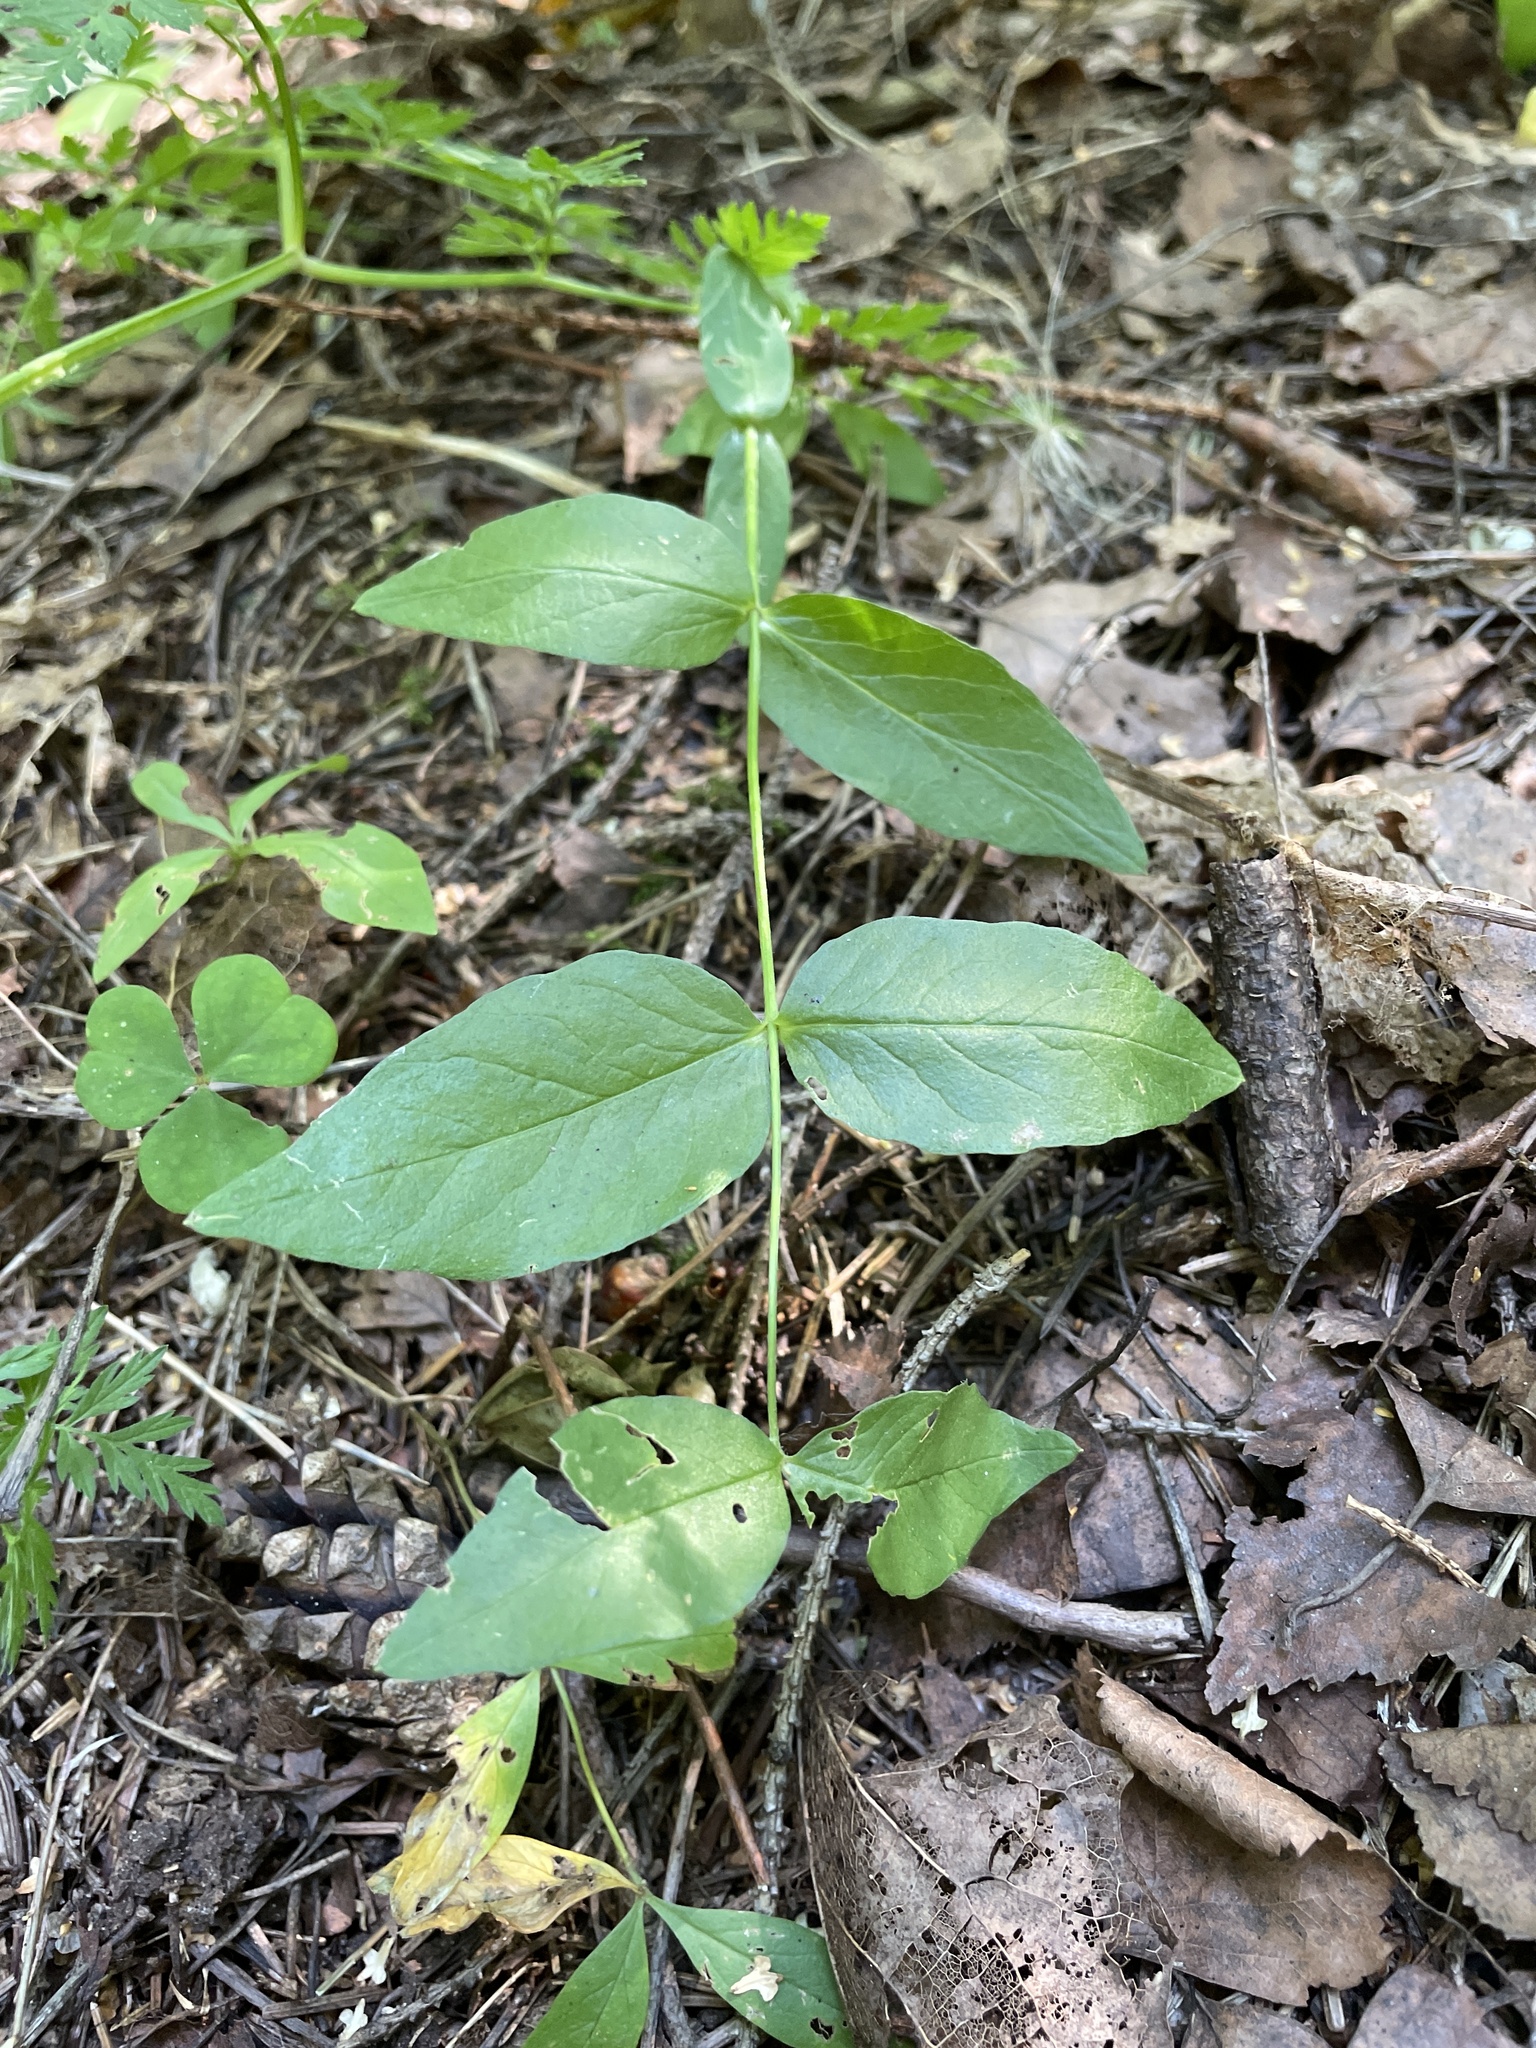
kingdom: Plantae
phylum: Tracheophyta
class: Magnoliopsida
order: Ericales
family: Primulaceae
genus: Lysimachia
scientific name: Lysimachia vulgaris
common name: Yellow loosestrife
